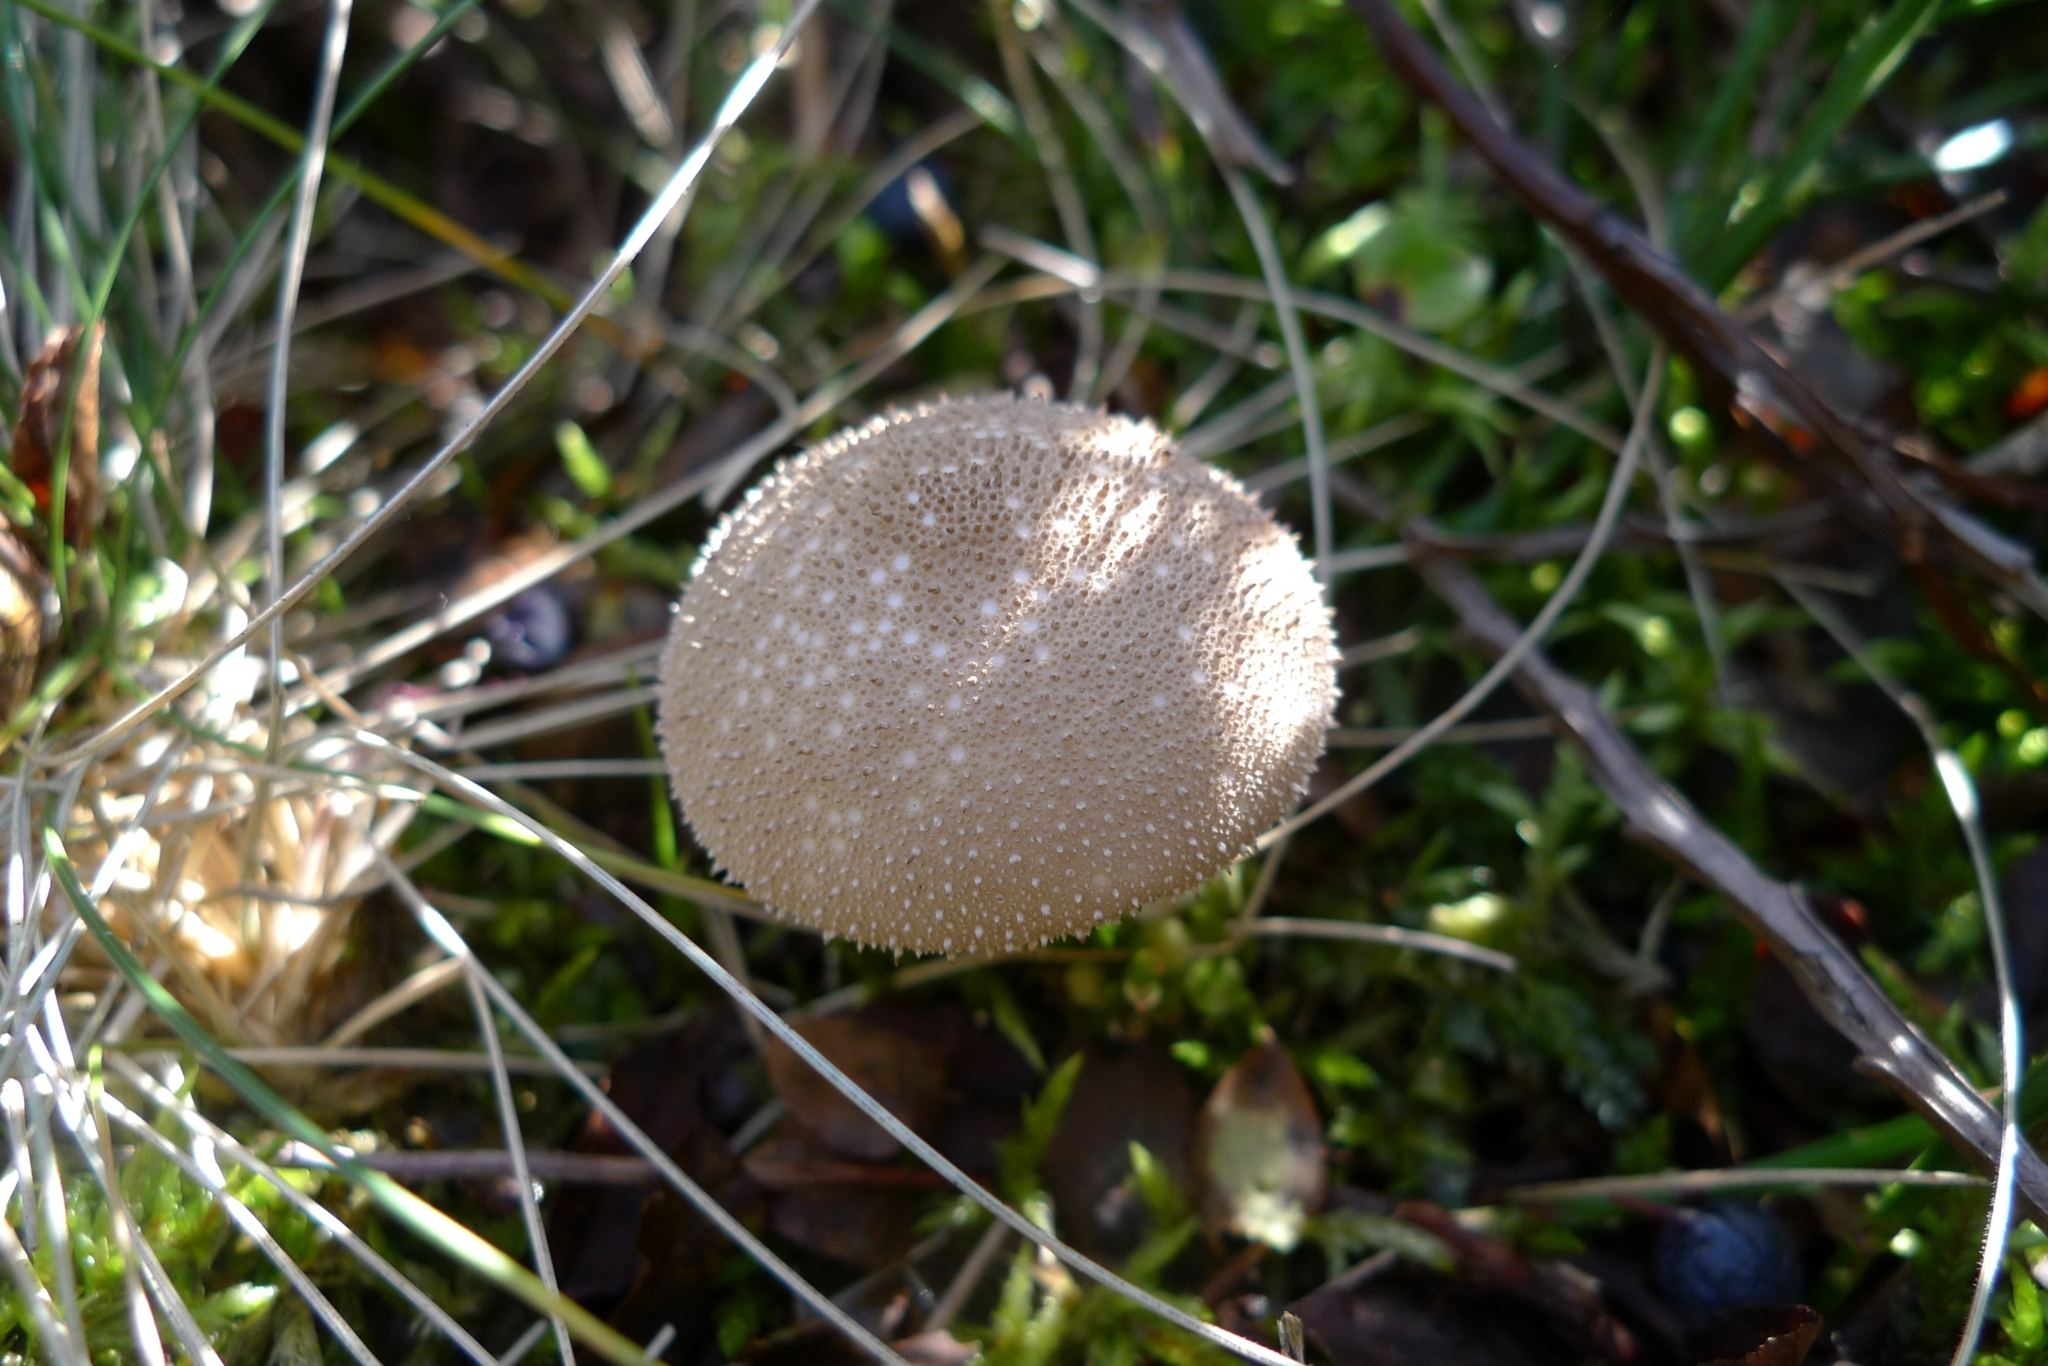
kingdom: Fungi
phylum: Basidiomycota
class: Agaricomycetes
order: Agaricales
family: Lycoperdaceae
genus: Lycoperdon
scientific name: Lycoperdon perlatum
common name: Common puffball
